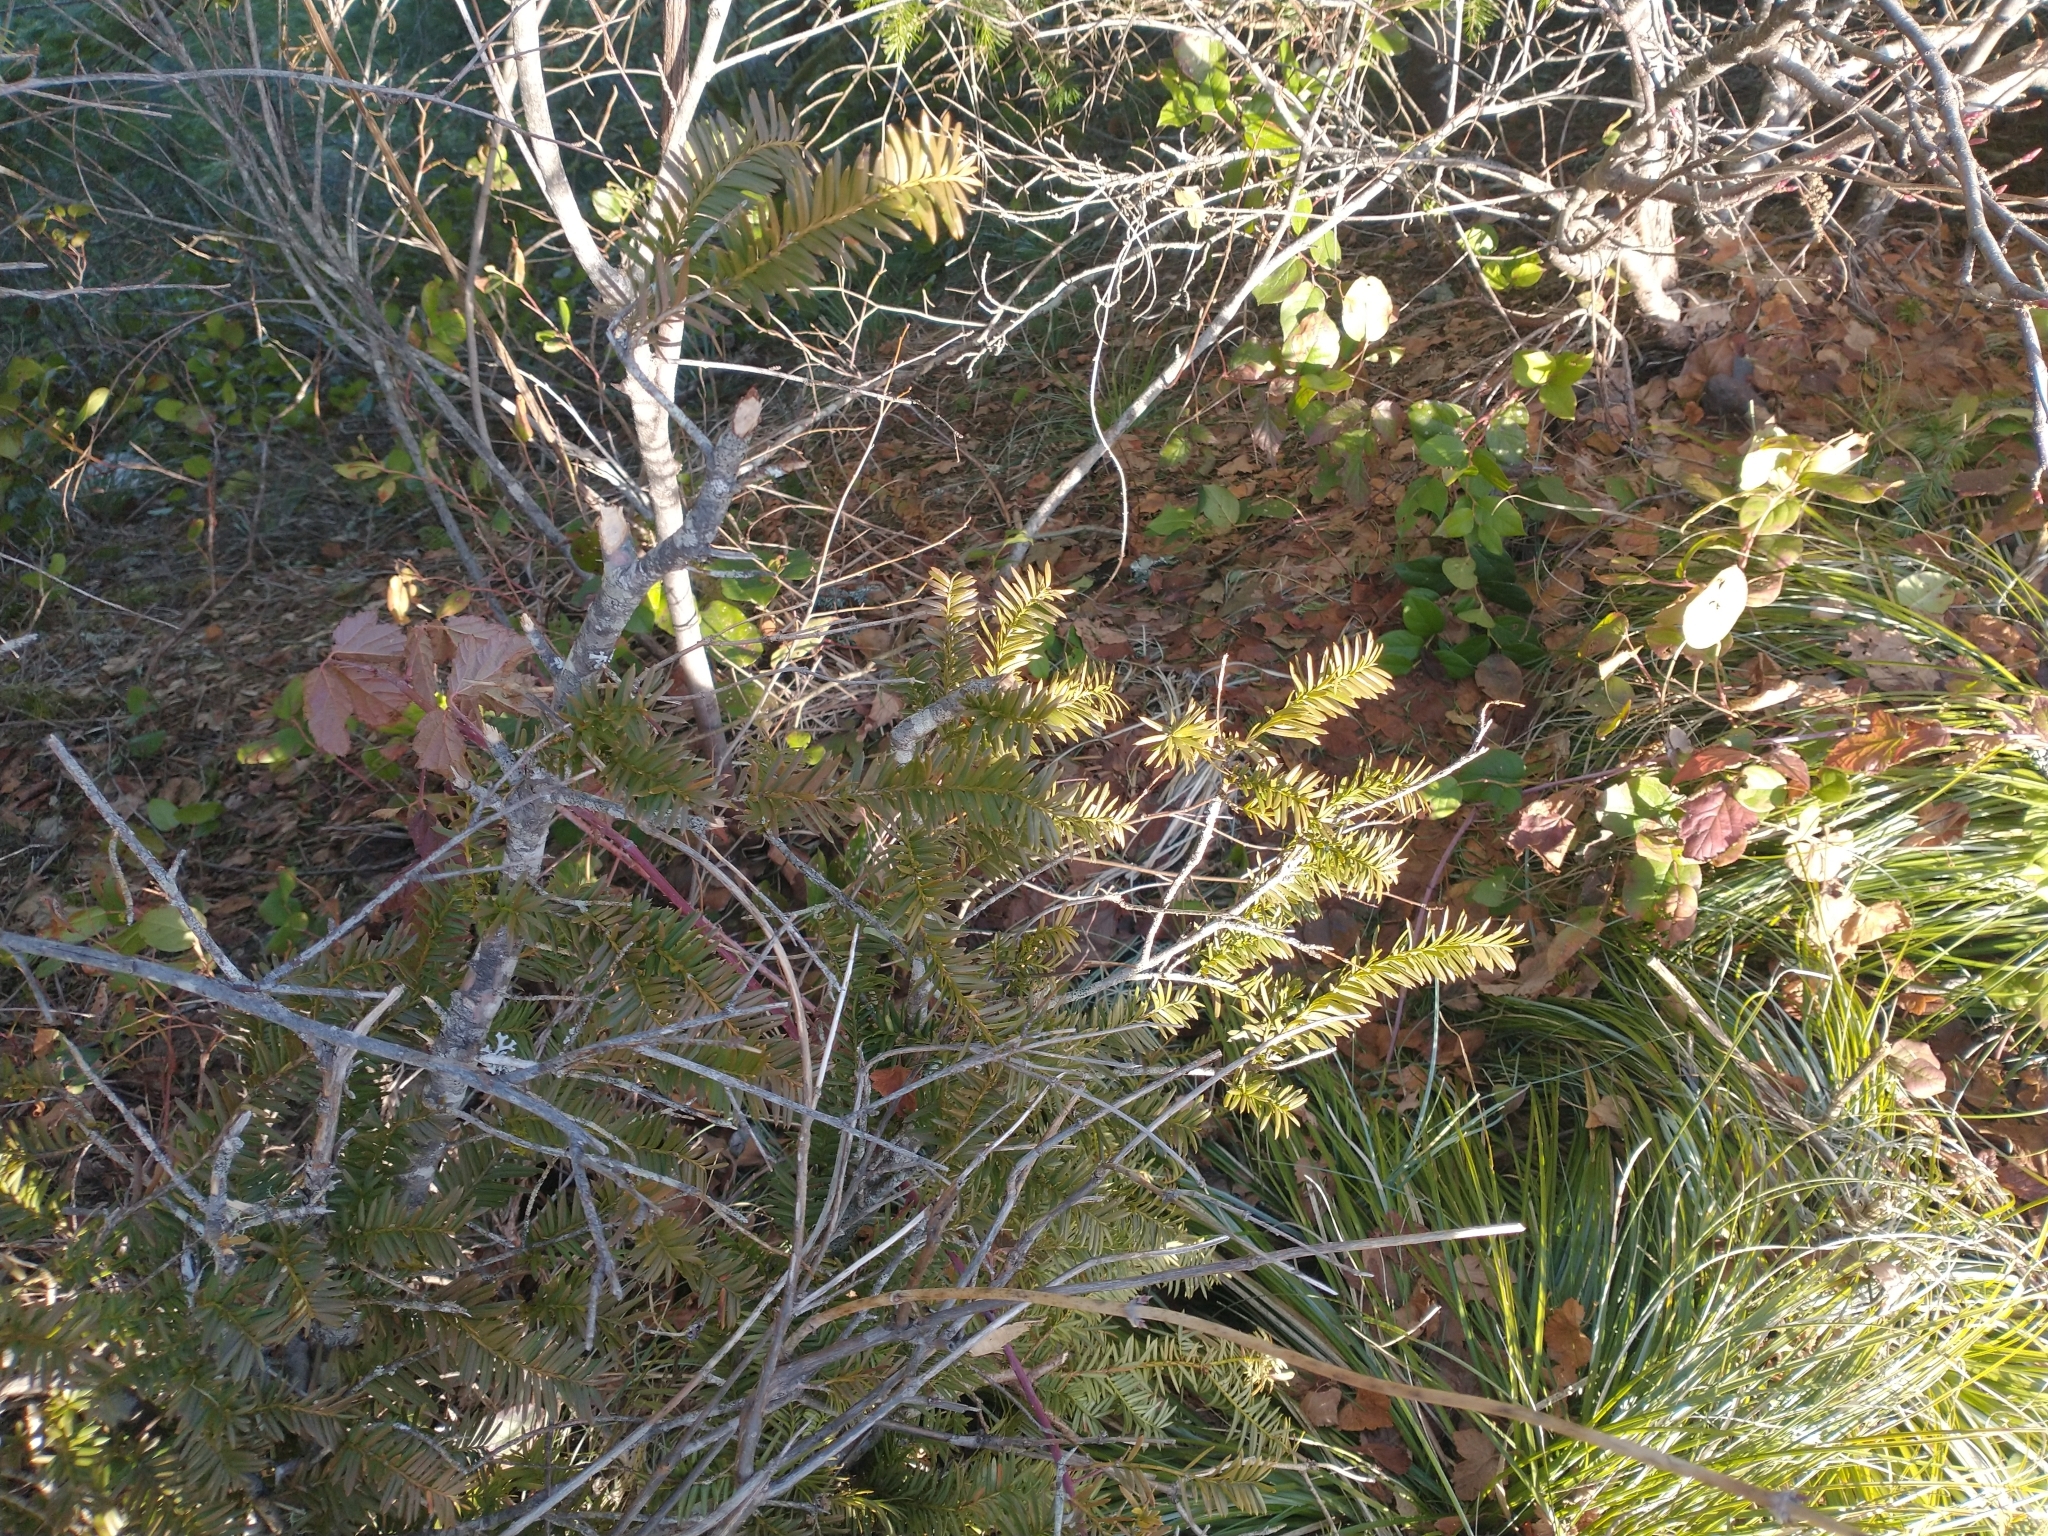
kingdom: Plantae
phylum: Tracheophyta
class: Pinopsida
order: Pinales
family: Taxaceae
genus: Taxus
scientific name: Taxus brevifolia
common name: Pacific yew
